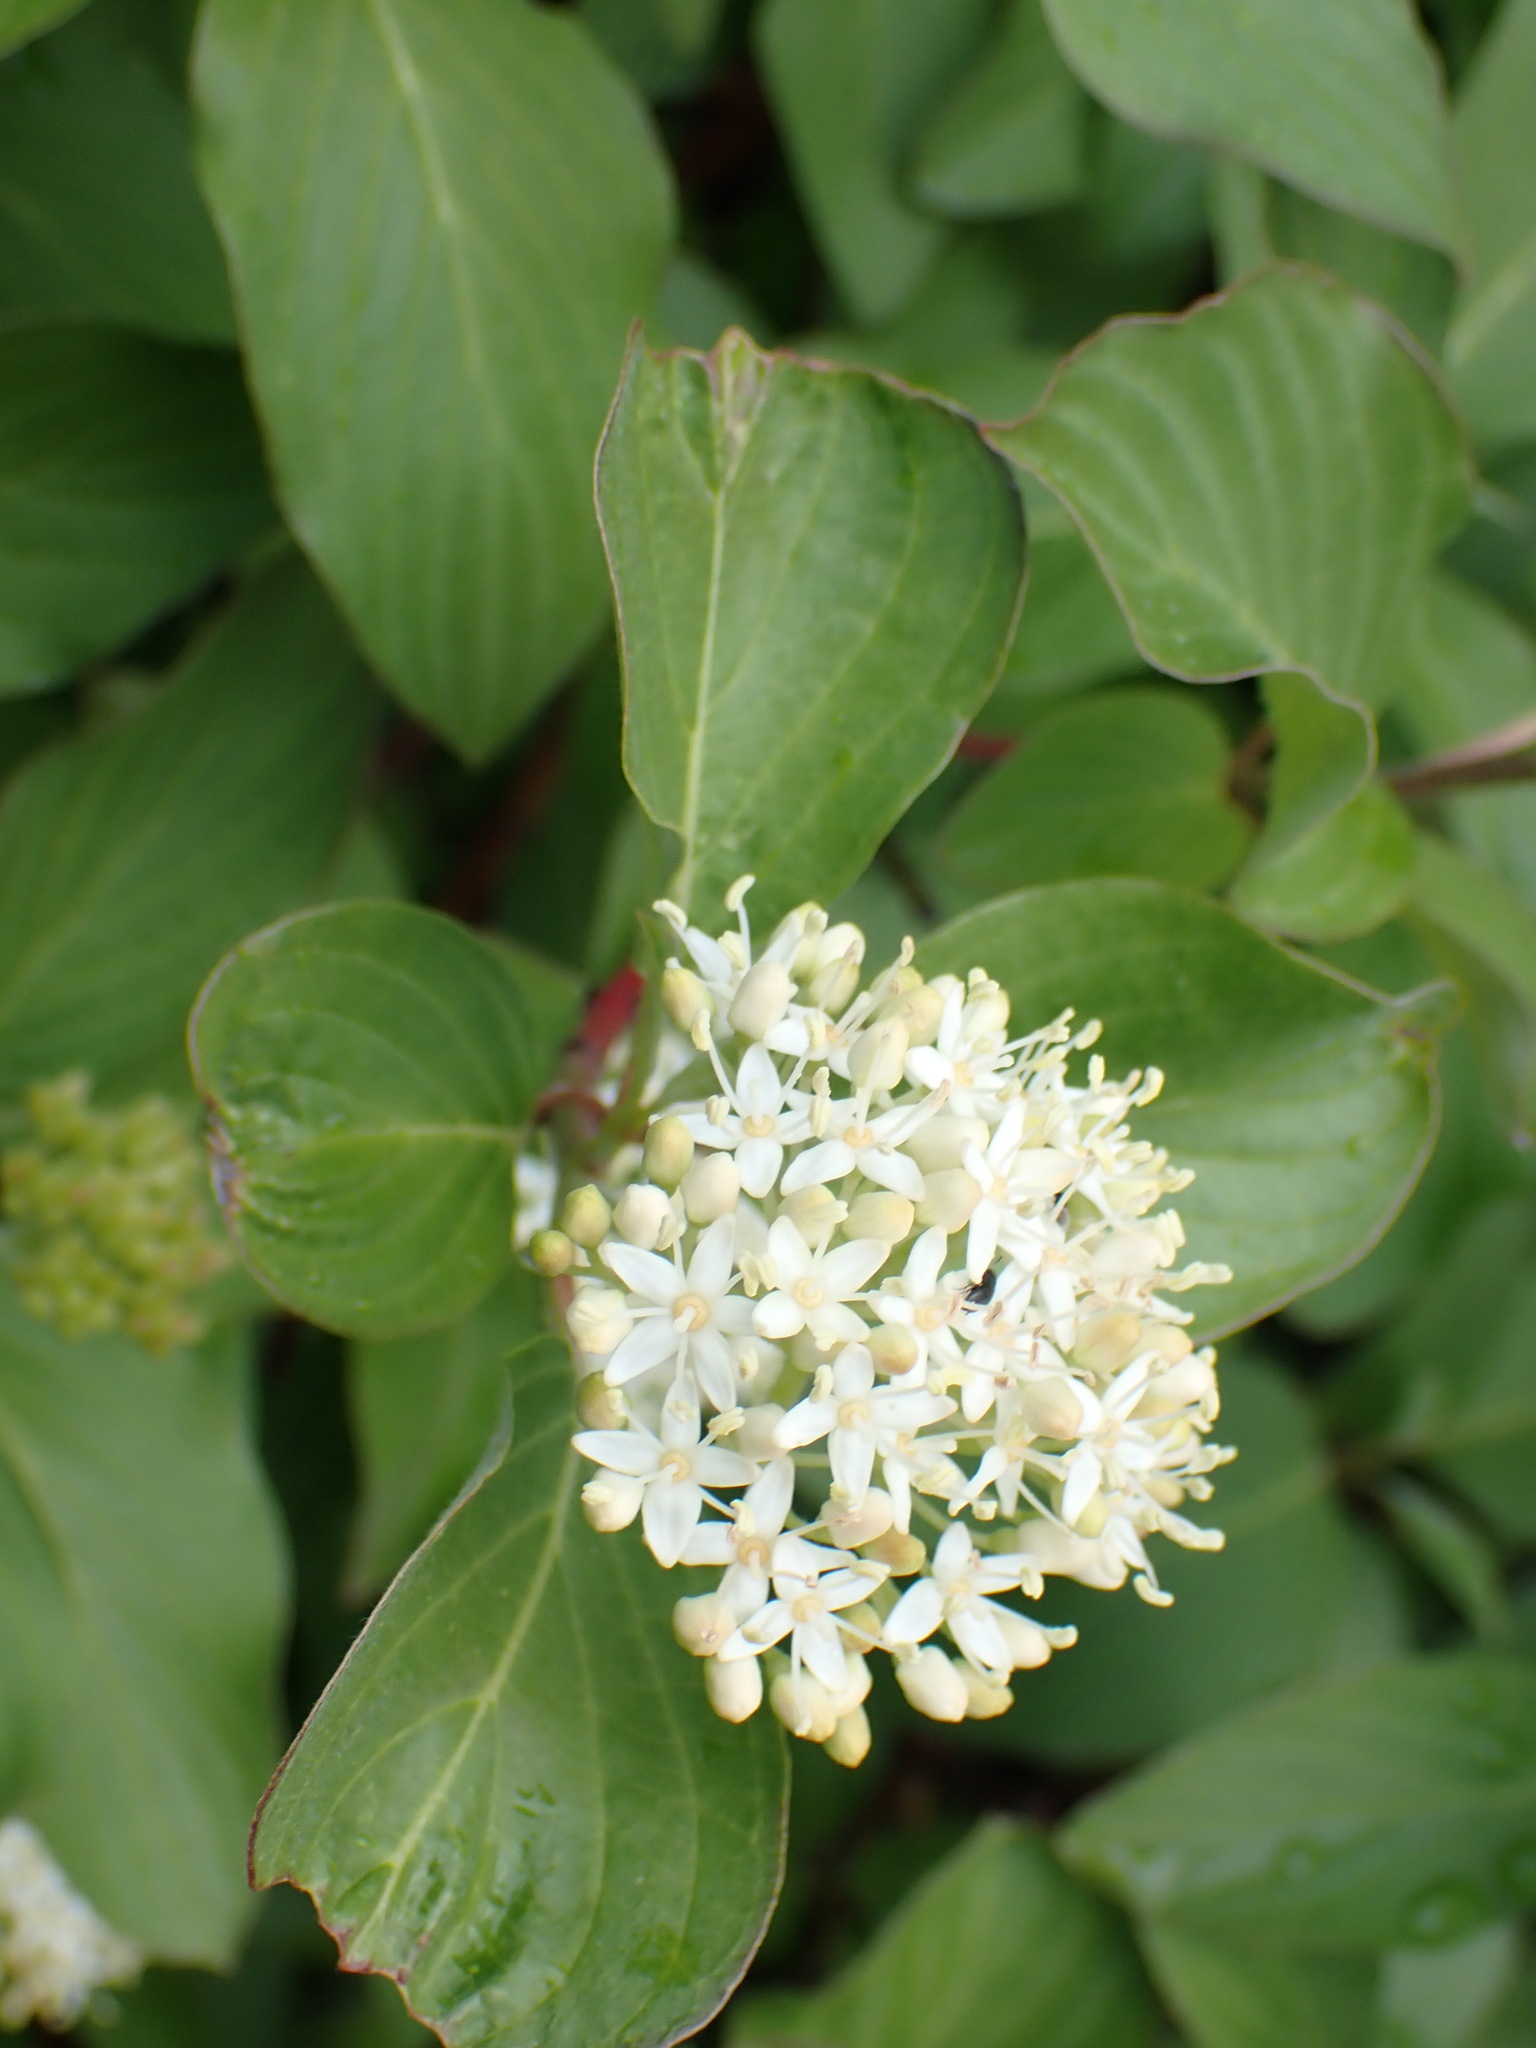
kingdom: Plantae
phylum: Tracheophyta
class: Magnoliopsida
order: Cornales
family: Cornaceae
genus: Cornus
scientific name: Cornus sericea
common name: Red-osier dogwood
